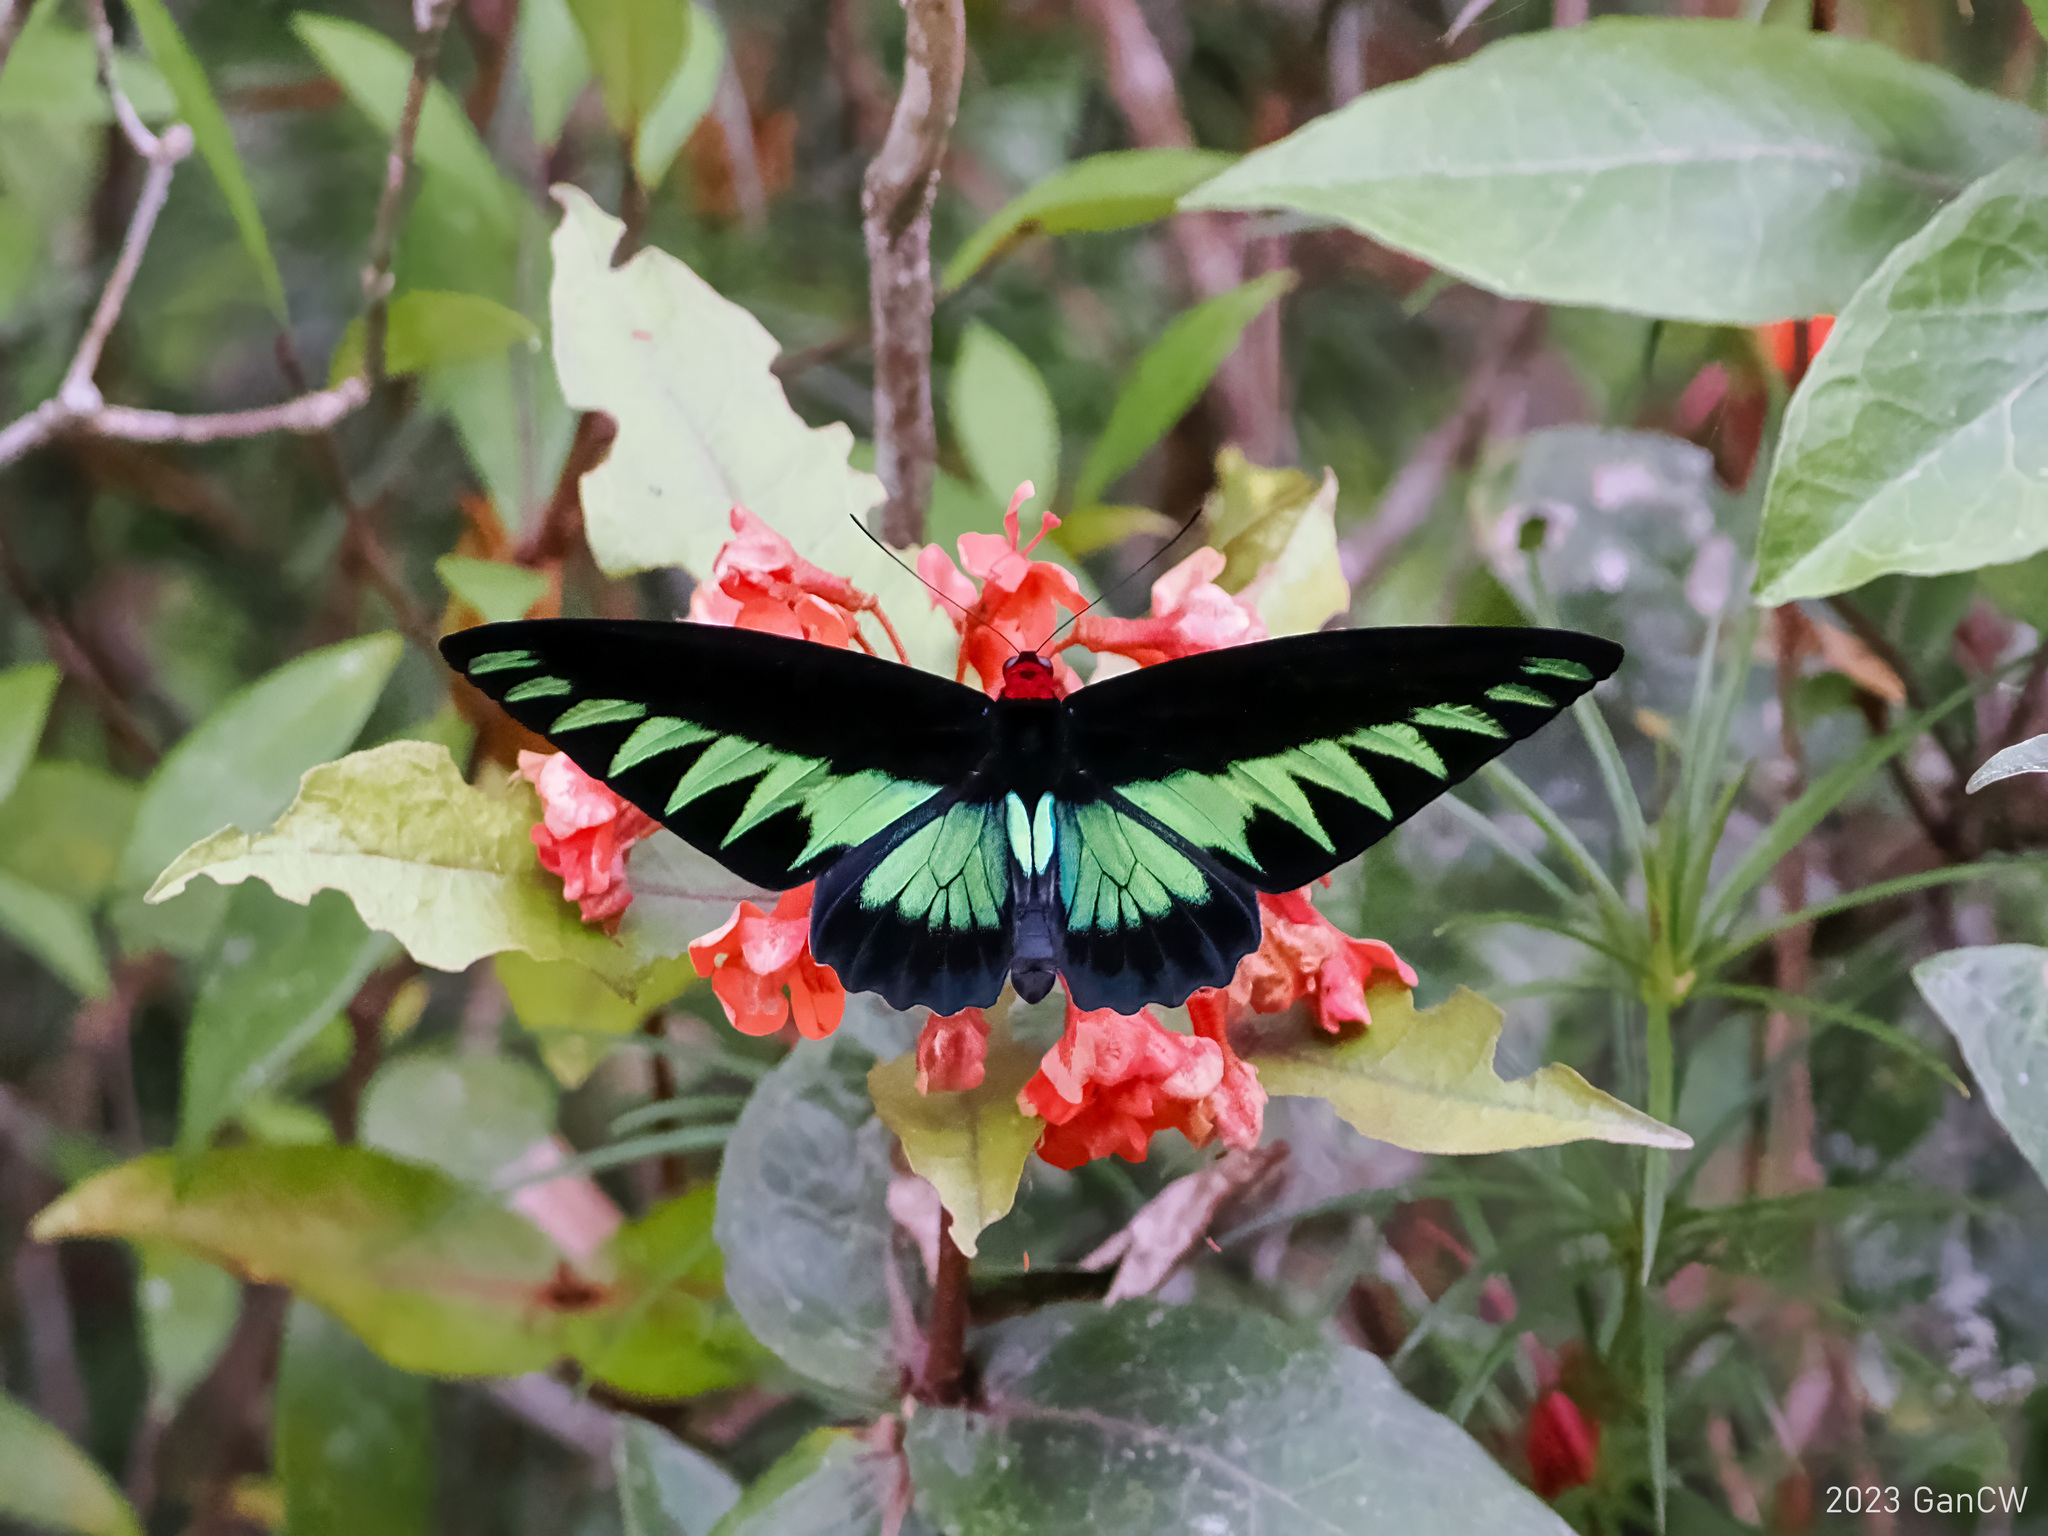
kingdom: Animalia
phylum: Arthropoda
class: Insecta
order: Lepidoptera
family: Papilionidae
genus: Trogonoptera
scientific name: Trogonoptera brookiana
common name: Raja brooke's birdwing
